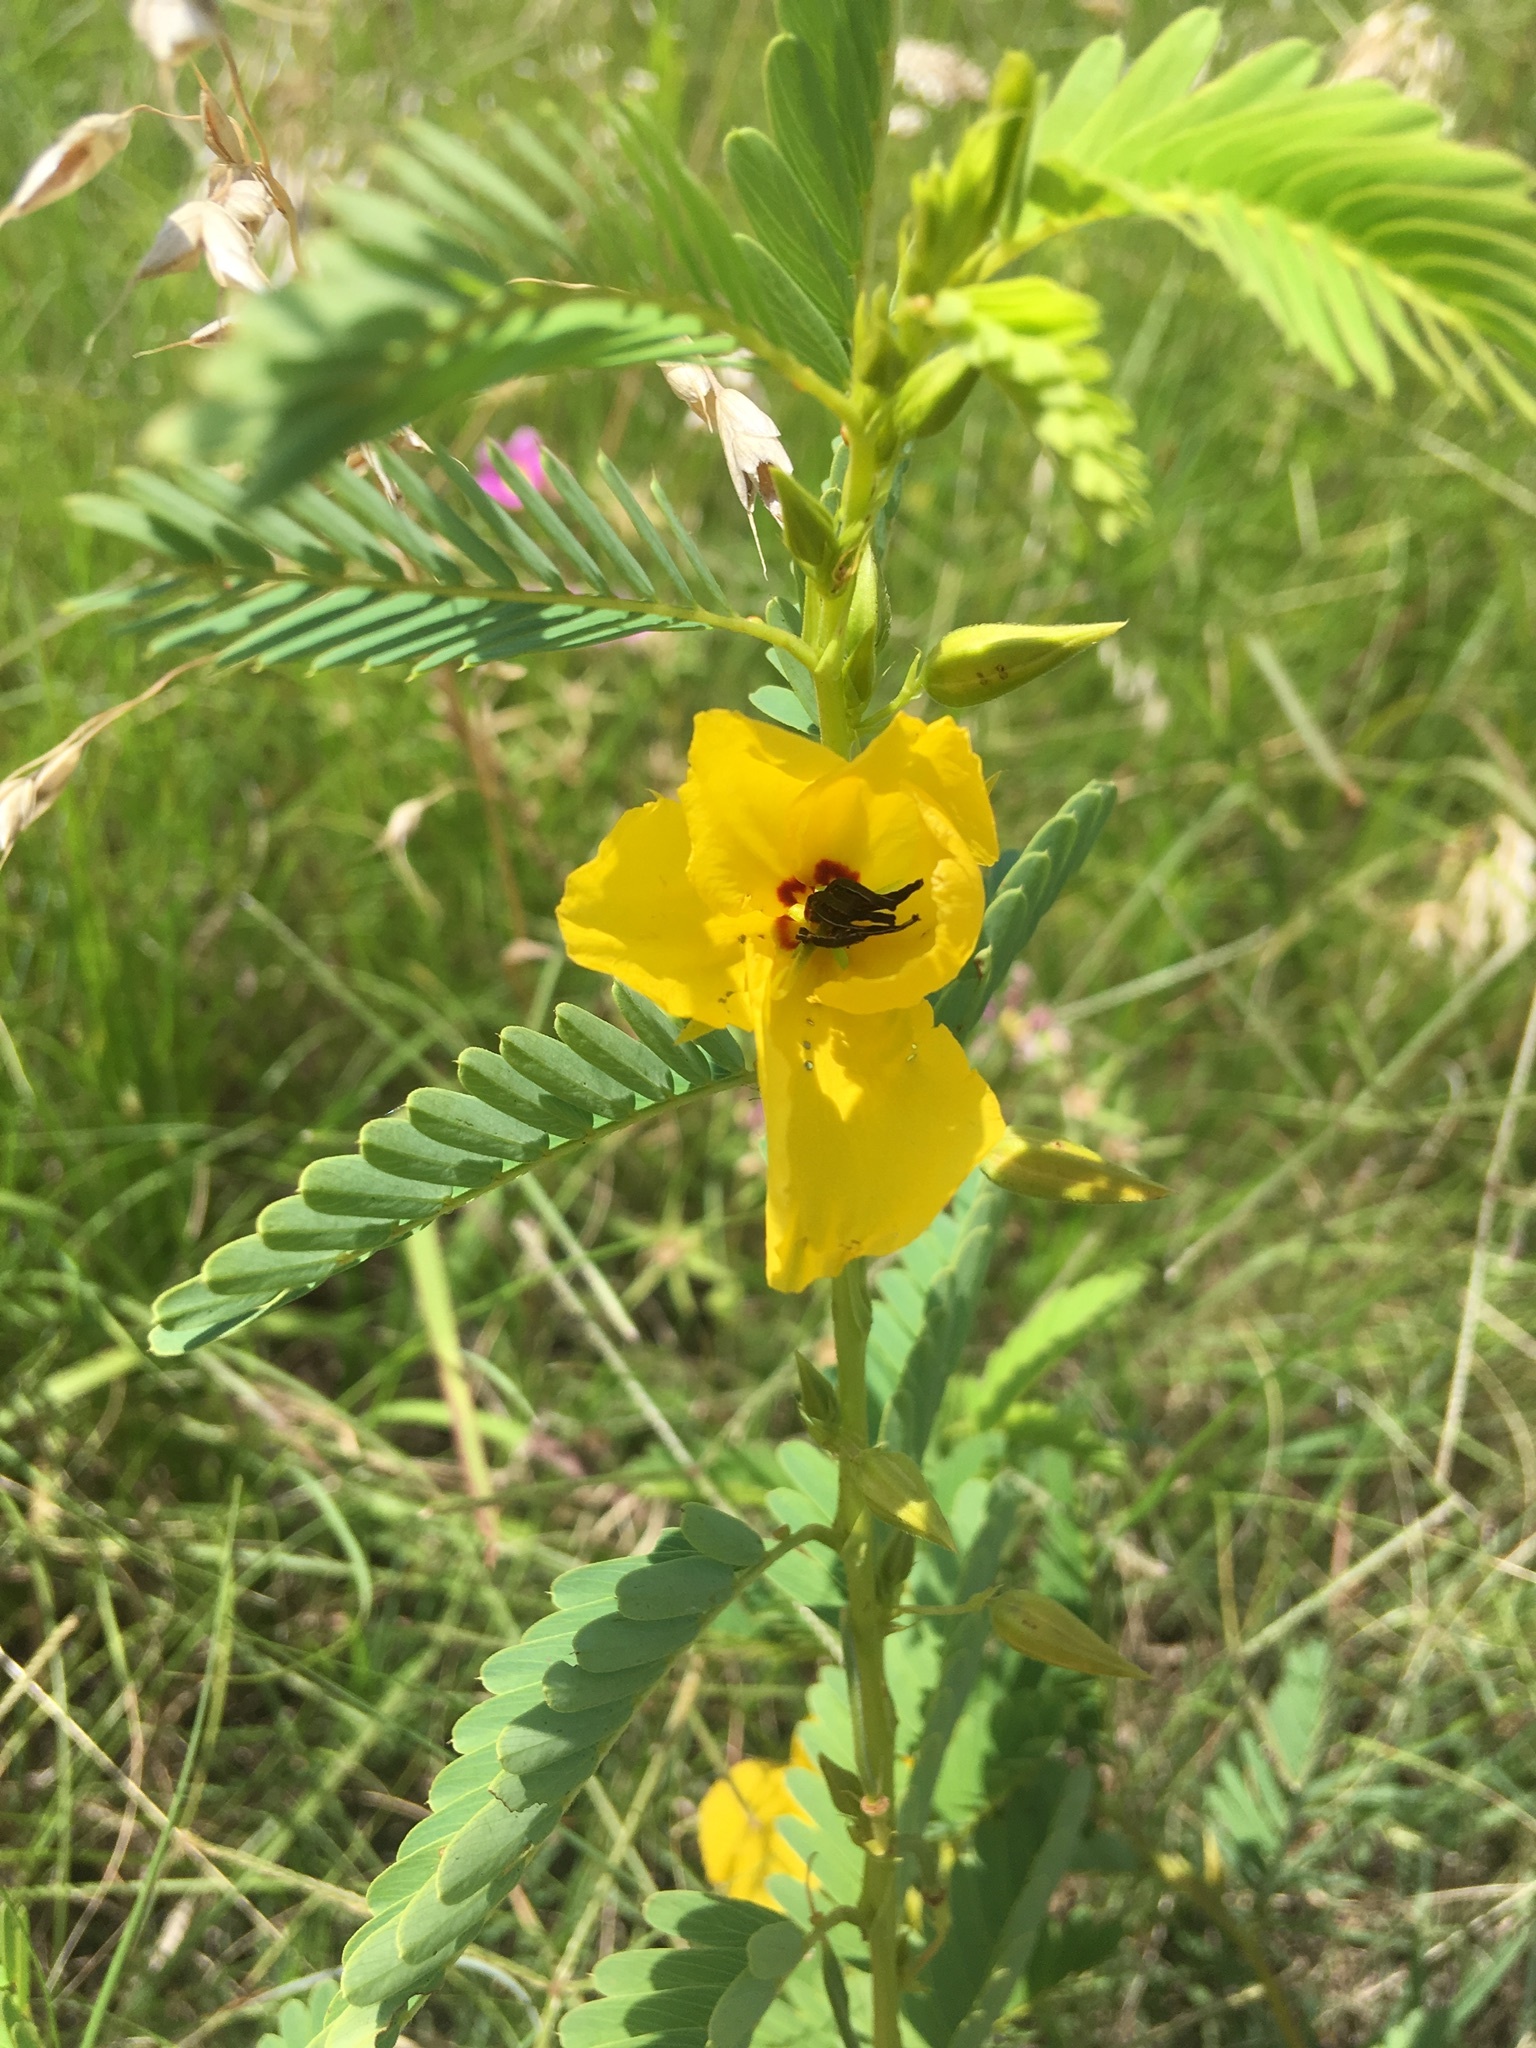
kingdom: Plantae
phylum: Tracheophyta
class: Magnoliopsida
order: Fabales
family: Fabaceae
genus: Chamaecrista
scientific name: Chamaecrista fasciculata
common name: Golden cassia
